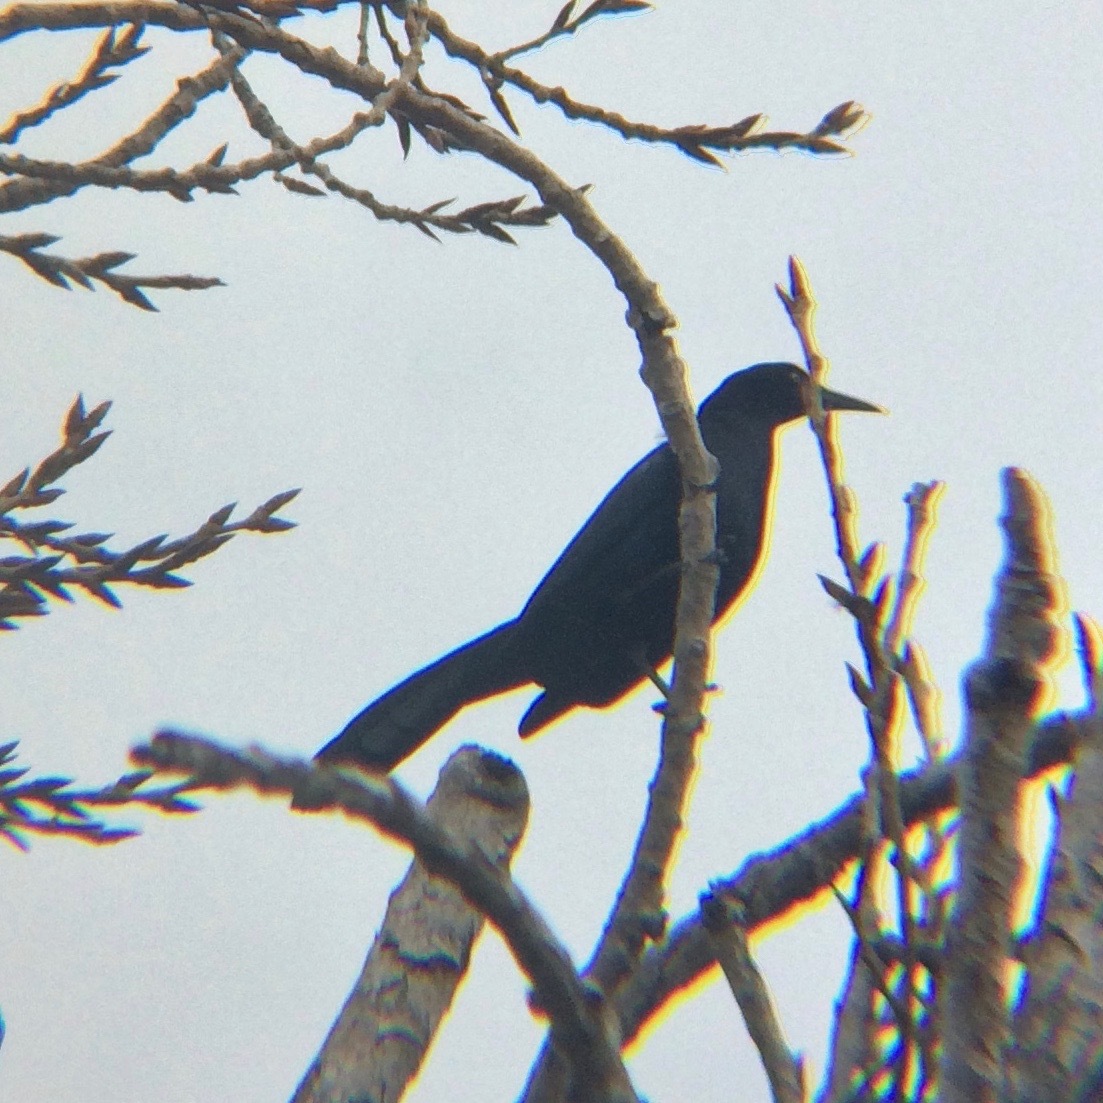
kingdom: Animalia
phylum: Chordata
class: Aves
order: Passeriformes
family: Icteridae
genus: Quiscalus
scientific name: Quiscalus mexicanus
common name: Great-tailed grackle
